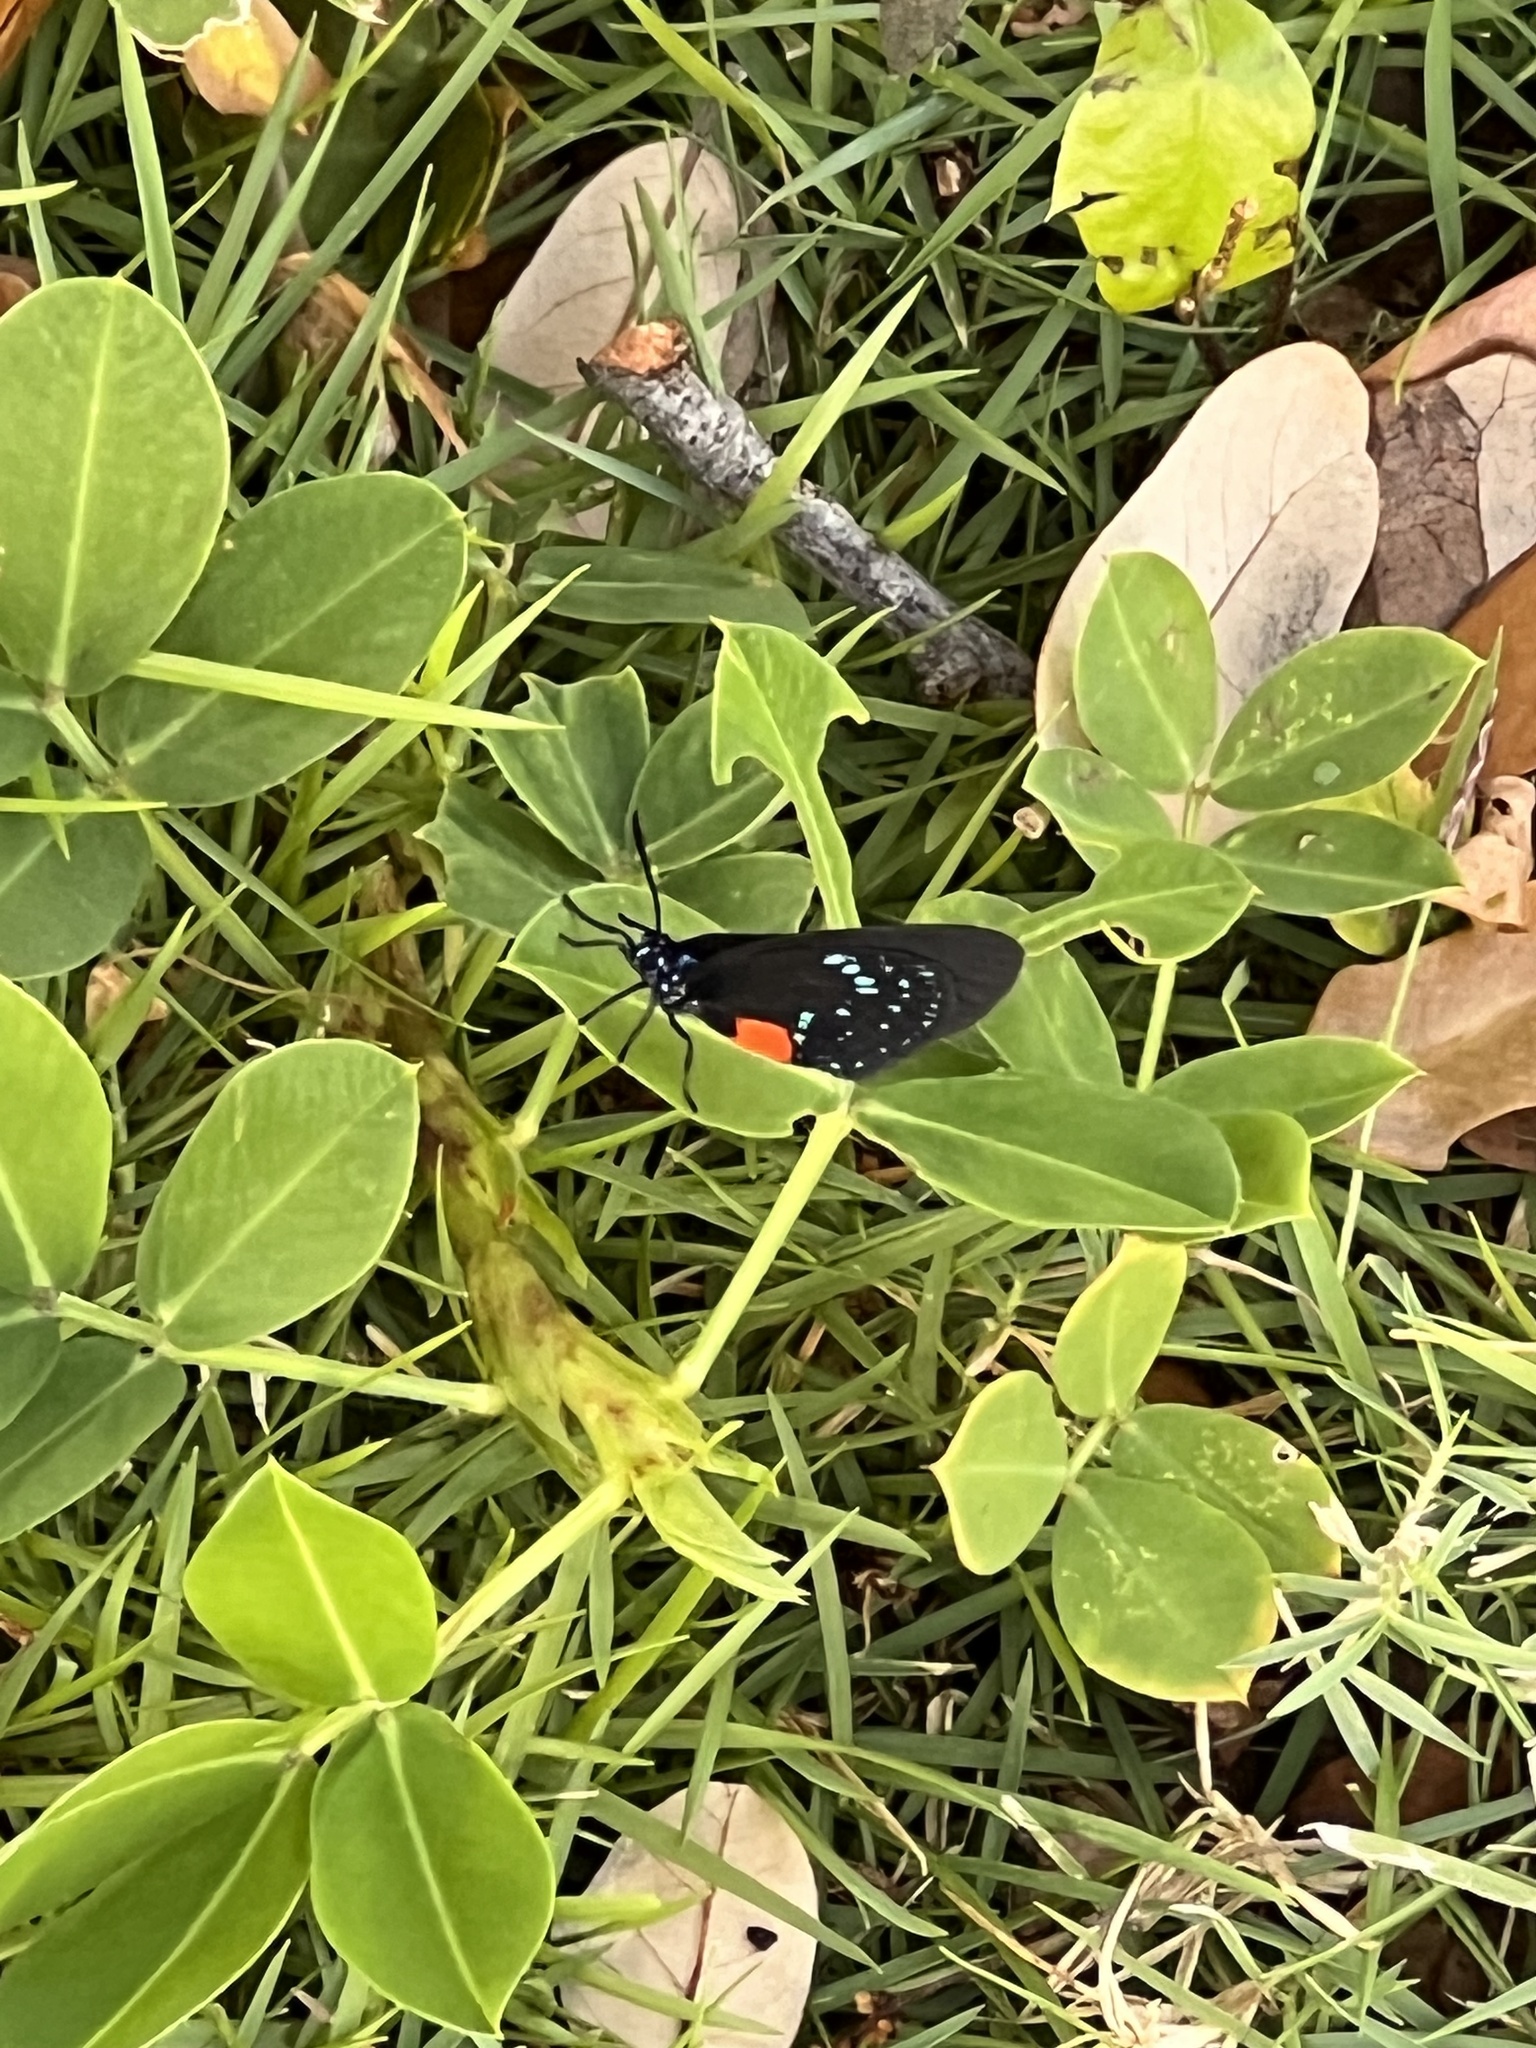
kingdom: Animalia
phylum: Arthropoda
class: Insecta
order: Lepidoptera
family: Lycaenidae
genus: Eumaeus
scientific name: Eumaeus atala
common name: Atala
